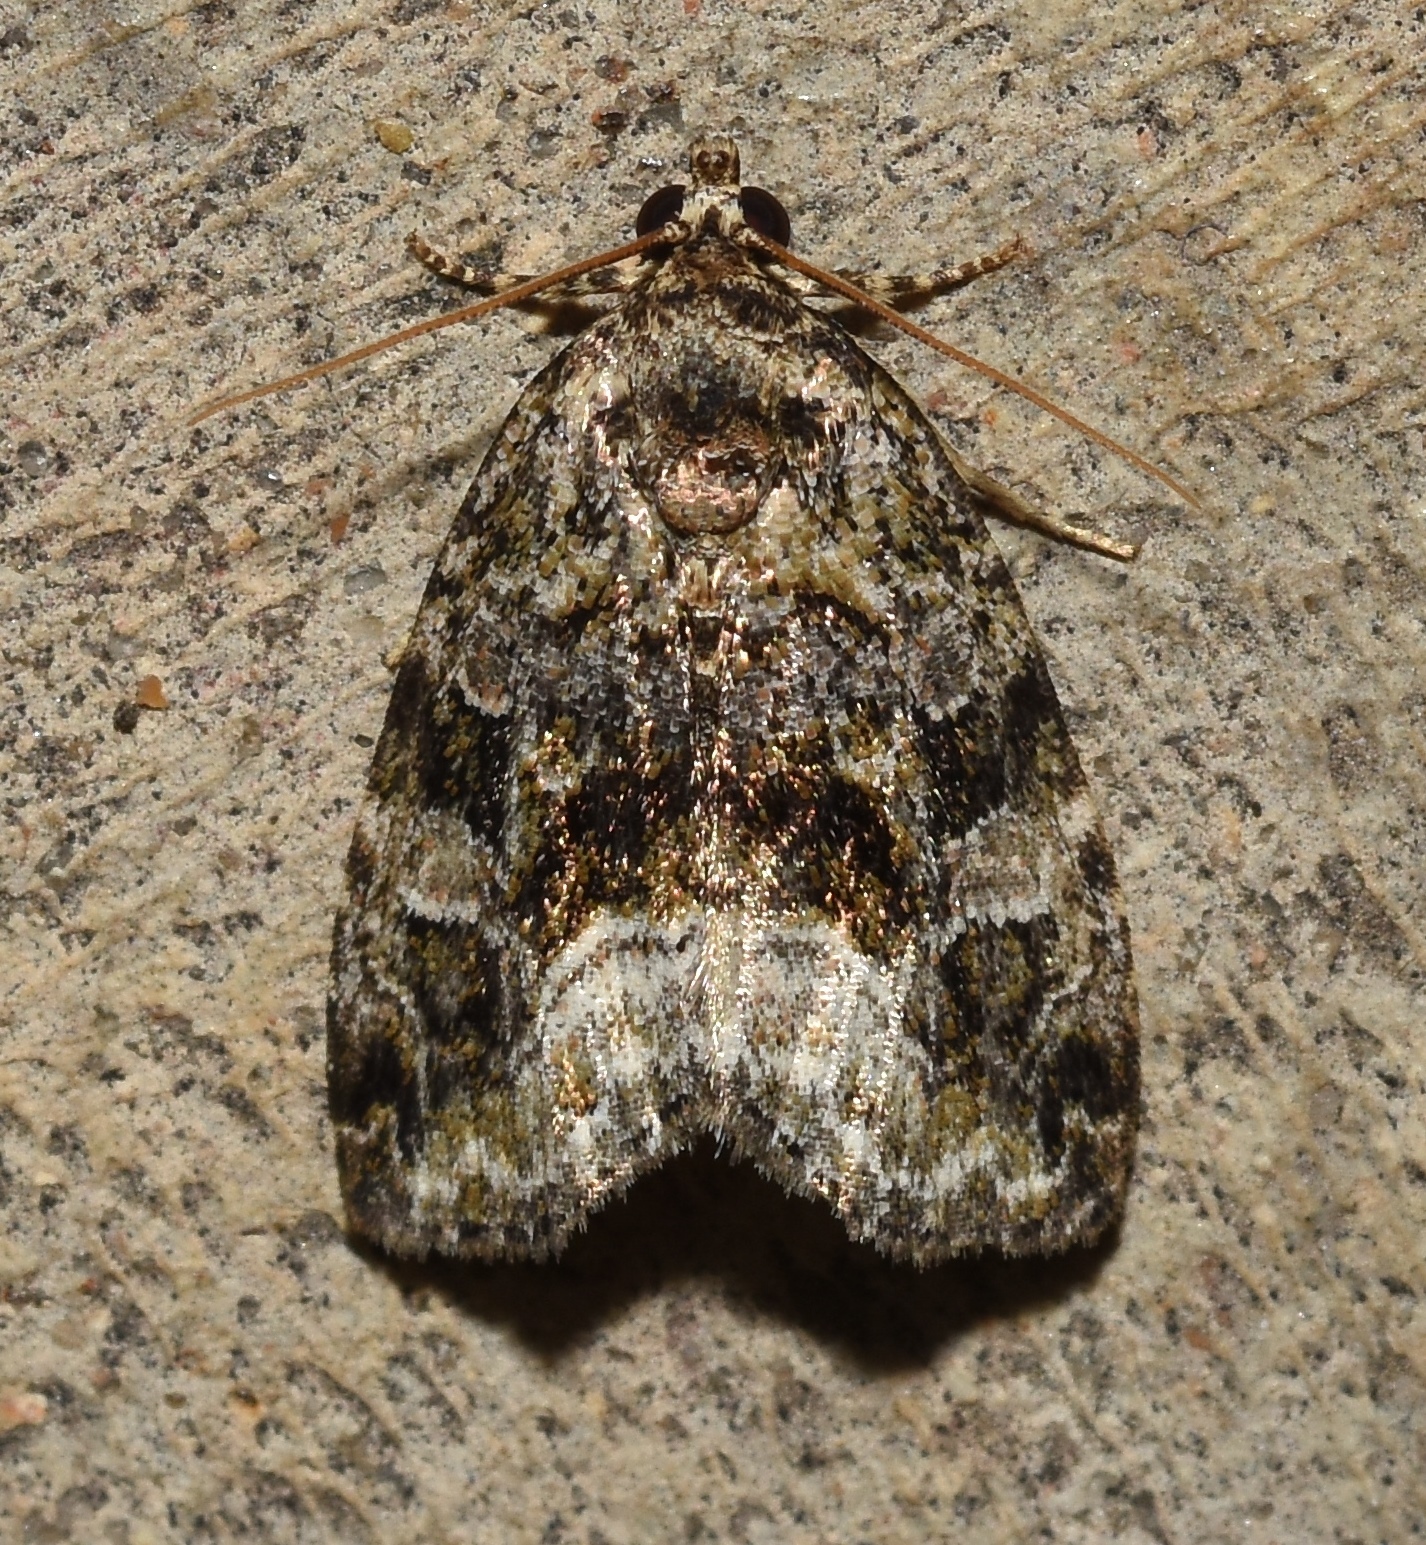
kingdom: Animalia
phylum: Arthropoda
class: Insecta
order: Lepidoptera
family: Noctuidae
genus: Protodeltote
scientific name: Protodeltote muscosula
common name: Large mossy glyph
